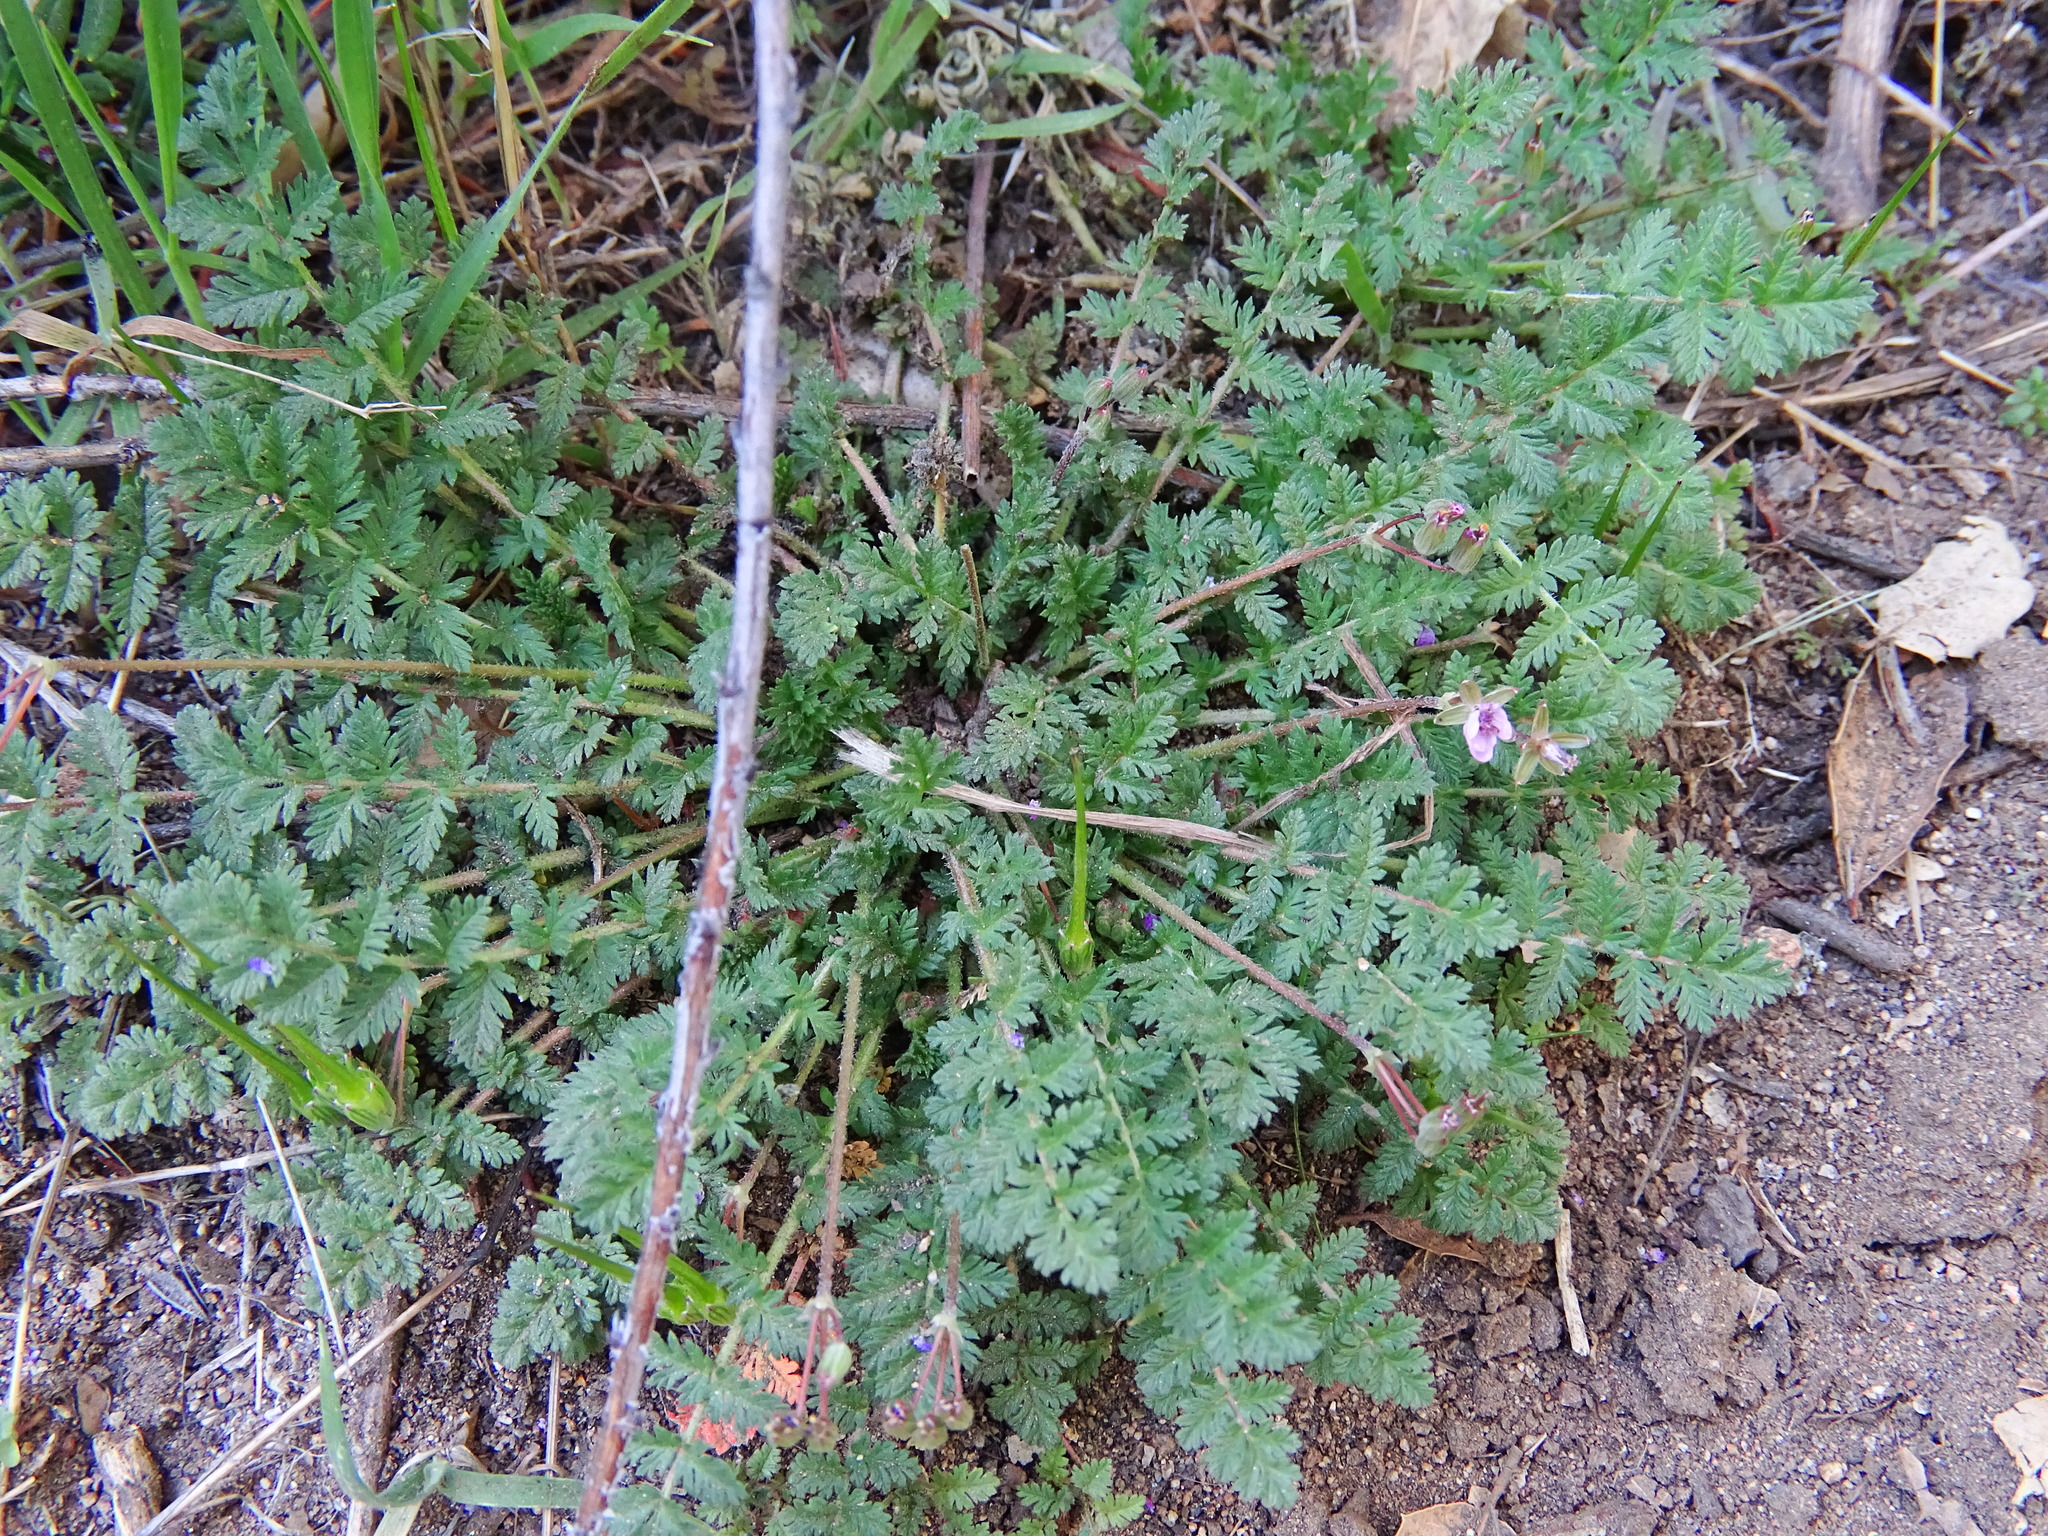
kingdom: Plantae
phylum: Tracheophyta
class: Magnoliopsida
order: Geraniales
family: Geraniaceae
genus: Erodium
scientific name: Erodium cicutarium
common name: Common stork's-bill
